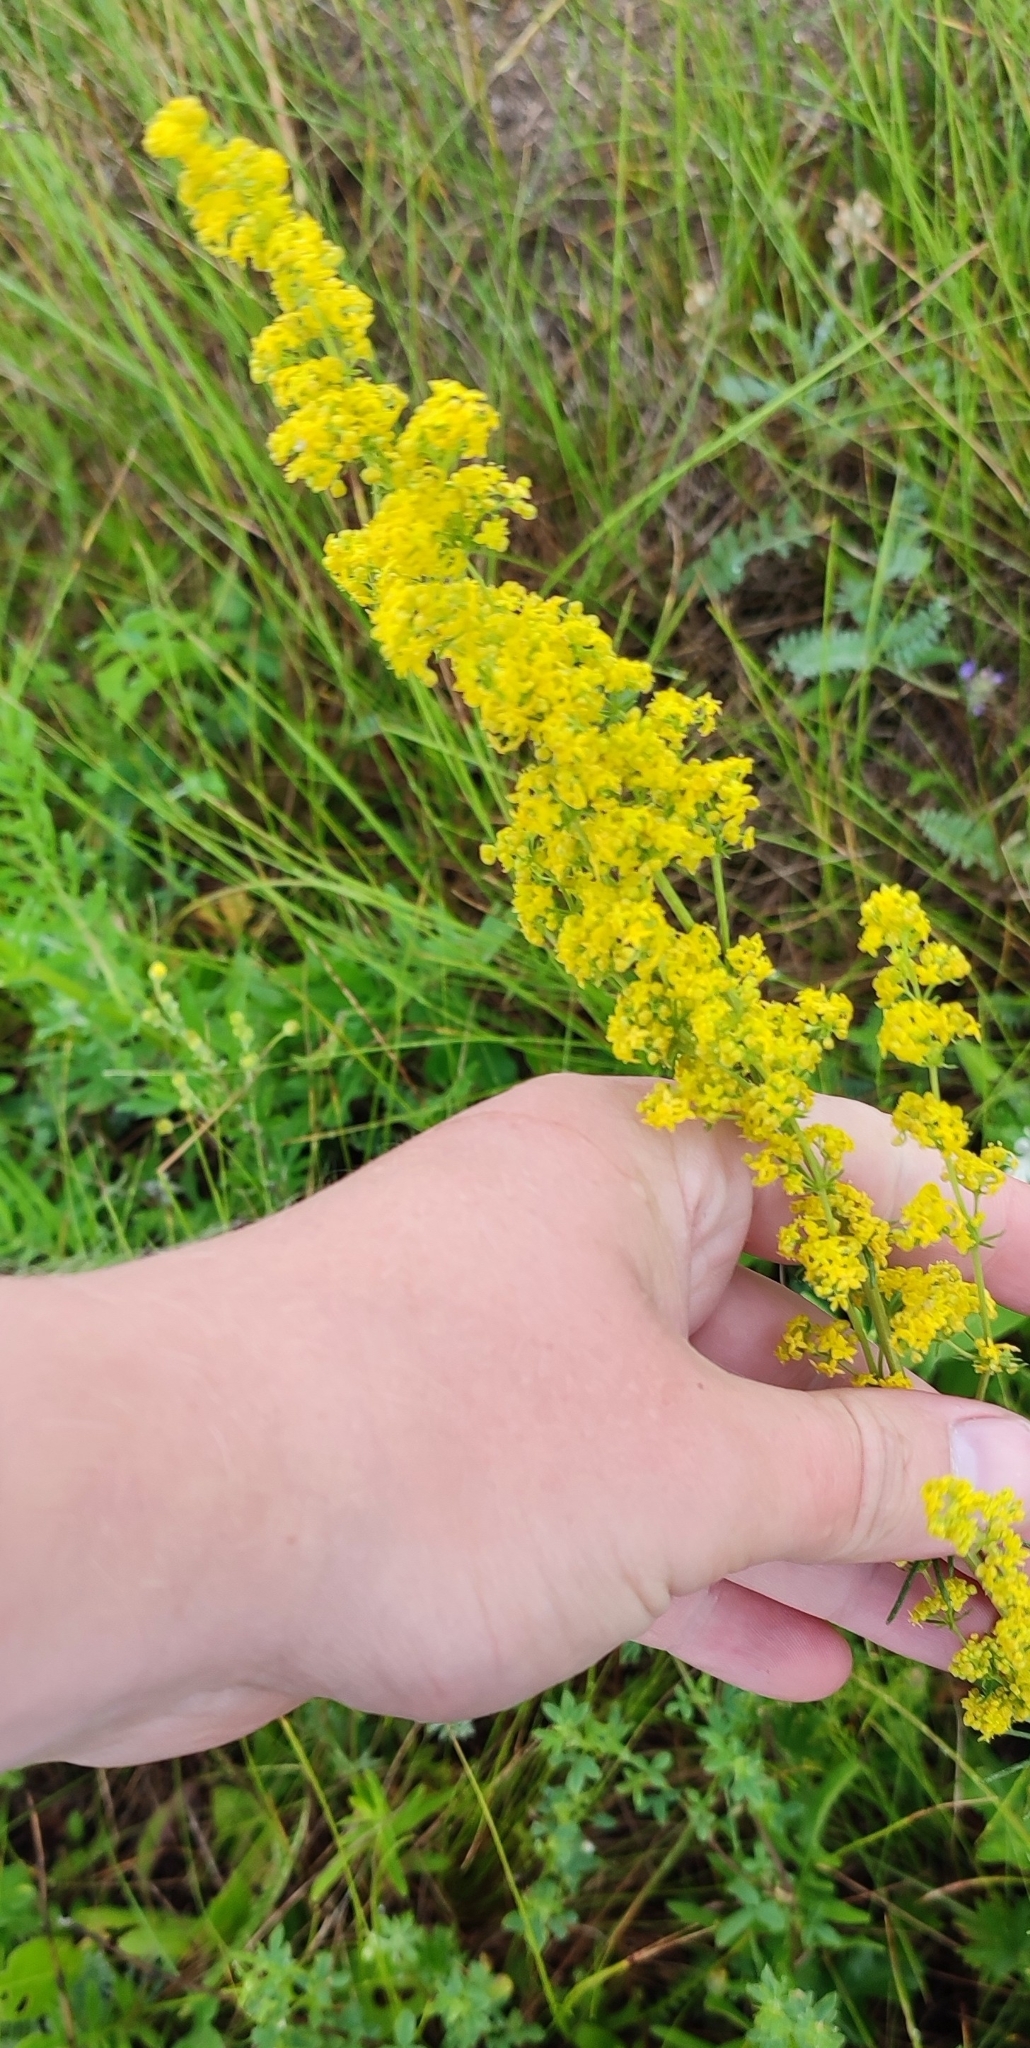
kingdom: Plantae
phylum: Tracheophyta
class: Magnoliopsida
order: Gentianales
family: Rubiaceae
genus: Galium
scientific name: Galium verum
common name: Lady's bedstraw
